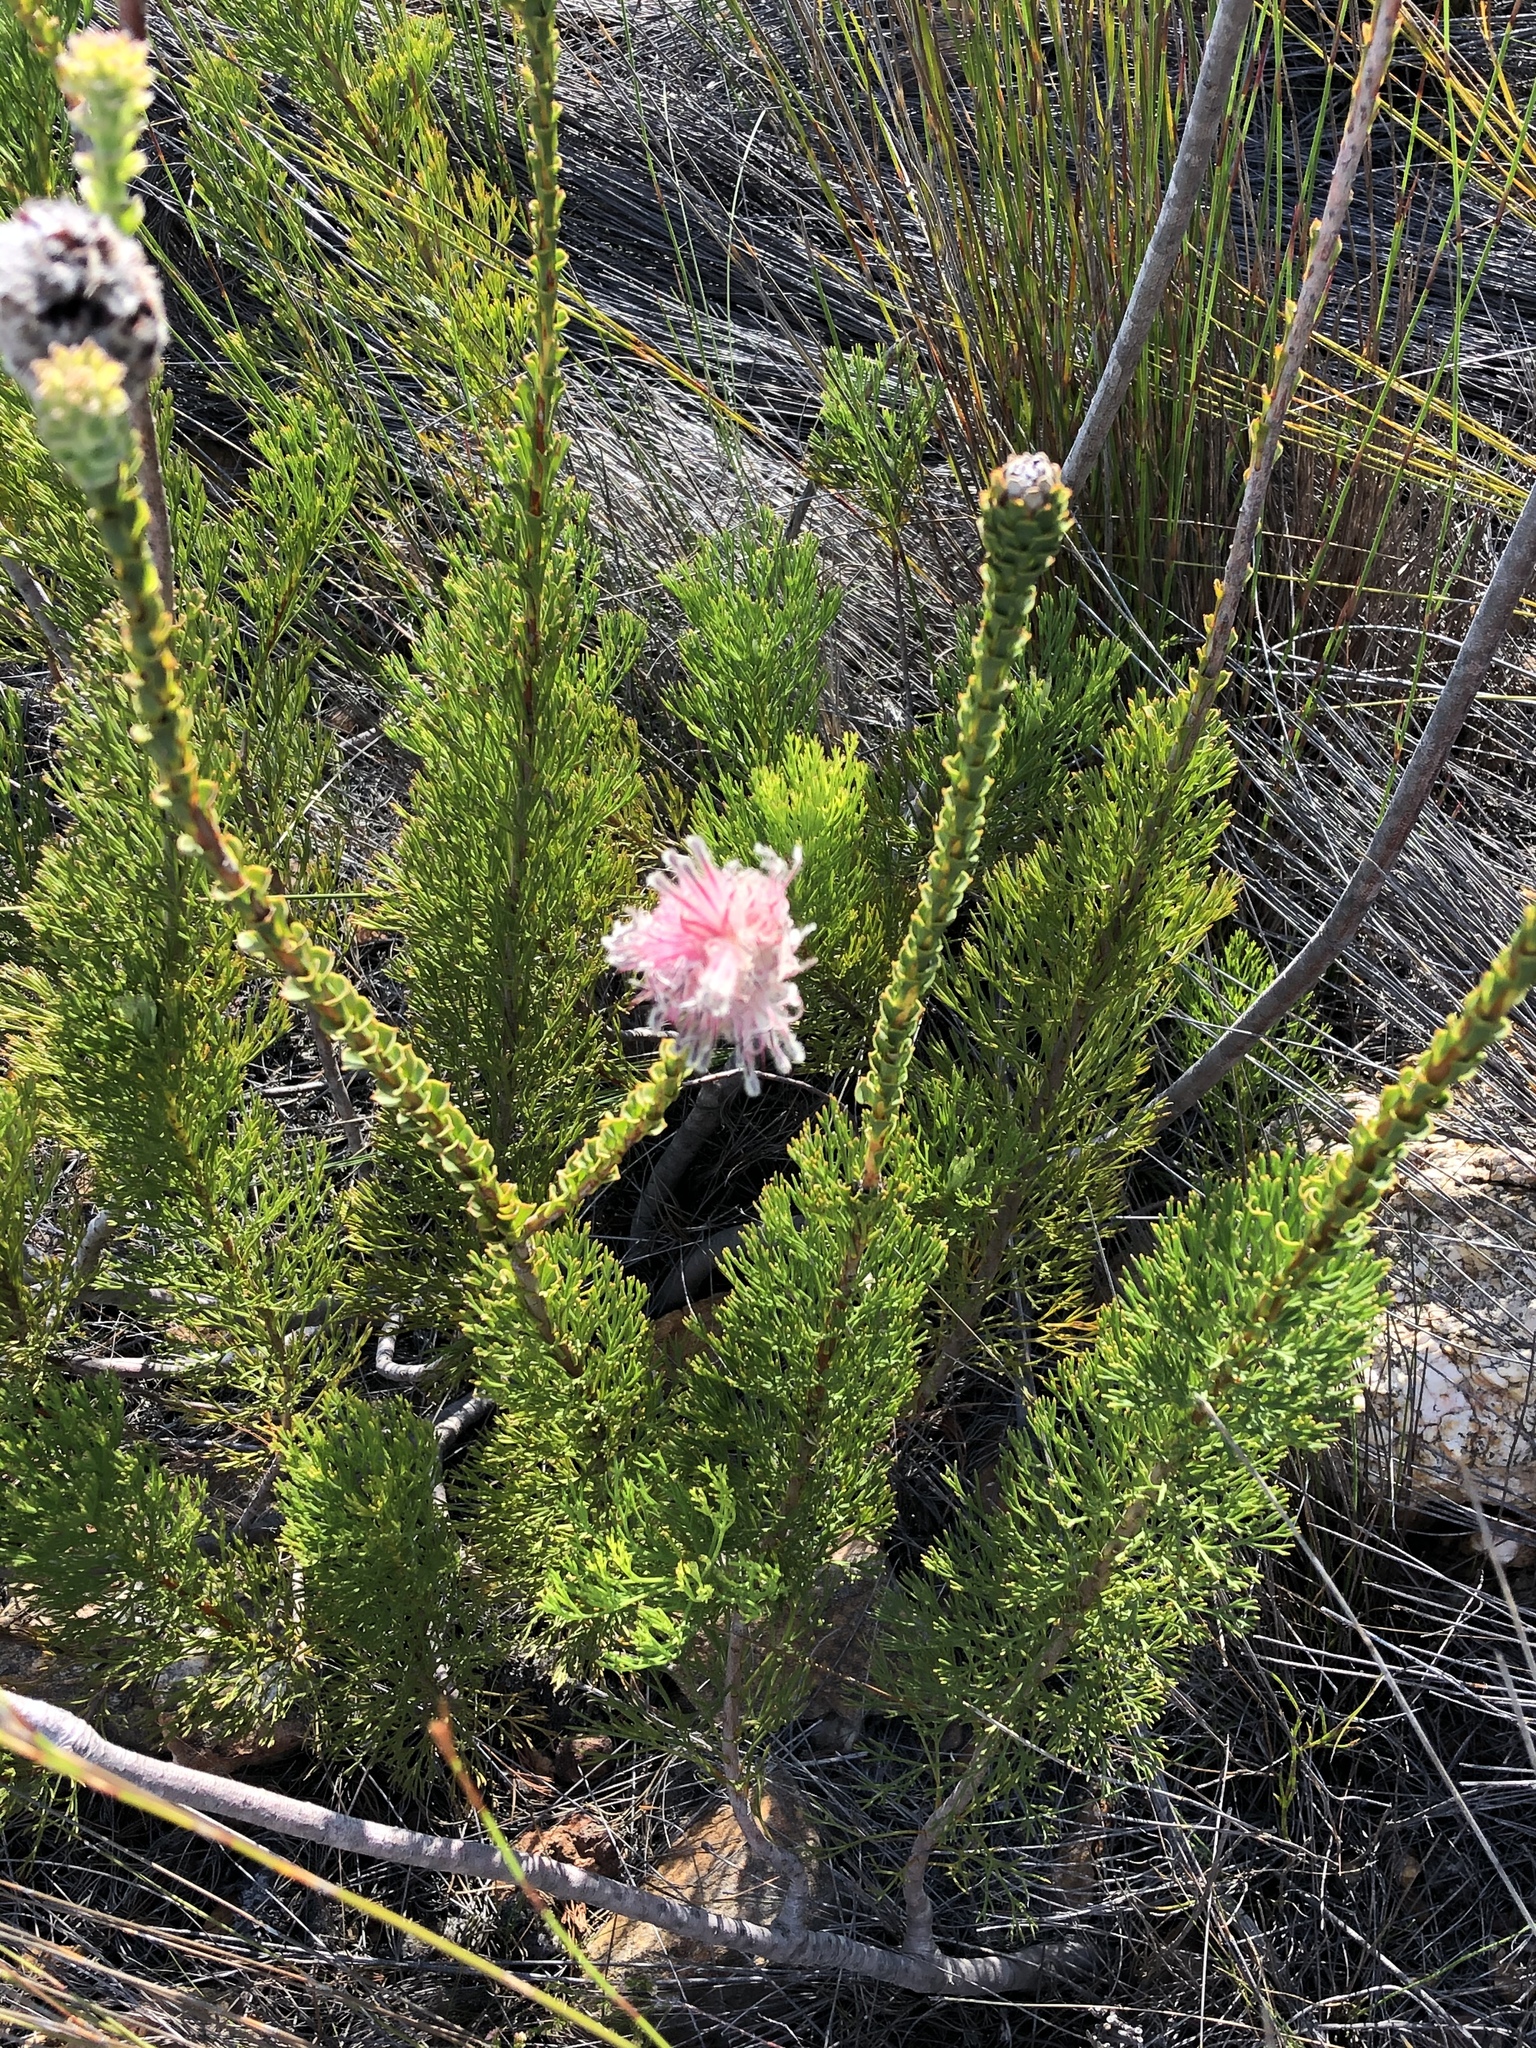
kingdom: Plantae
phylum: Tracheophyta
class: Magnoliopsida
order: Proteales
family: Proteaceae
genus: Paranomus
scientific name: Paranomus longicaulis
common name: Exploding baked apple
